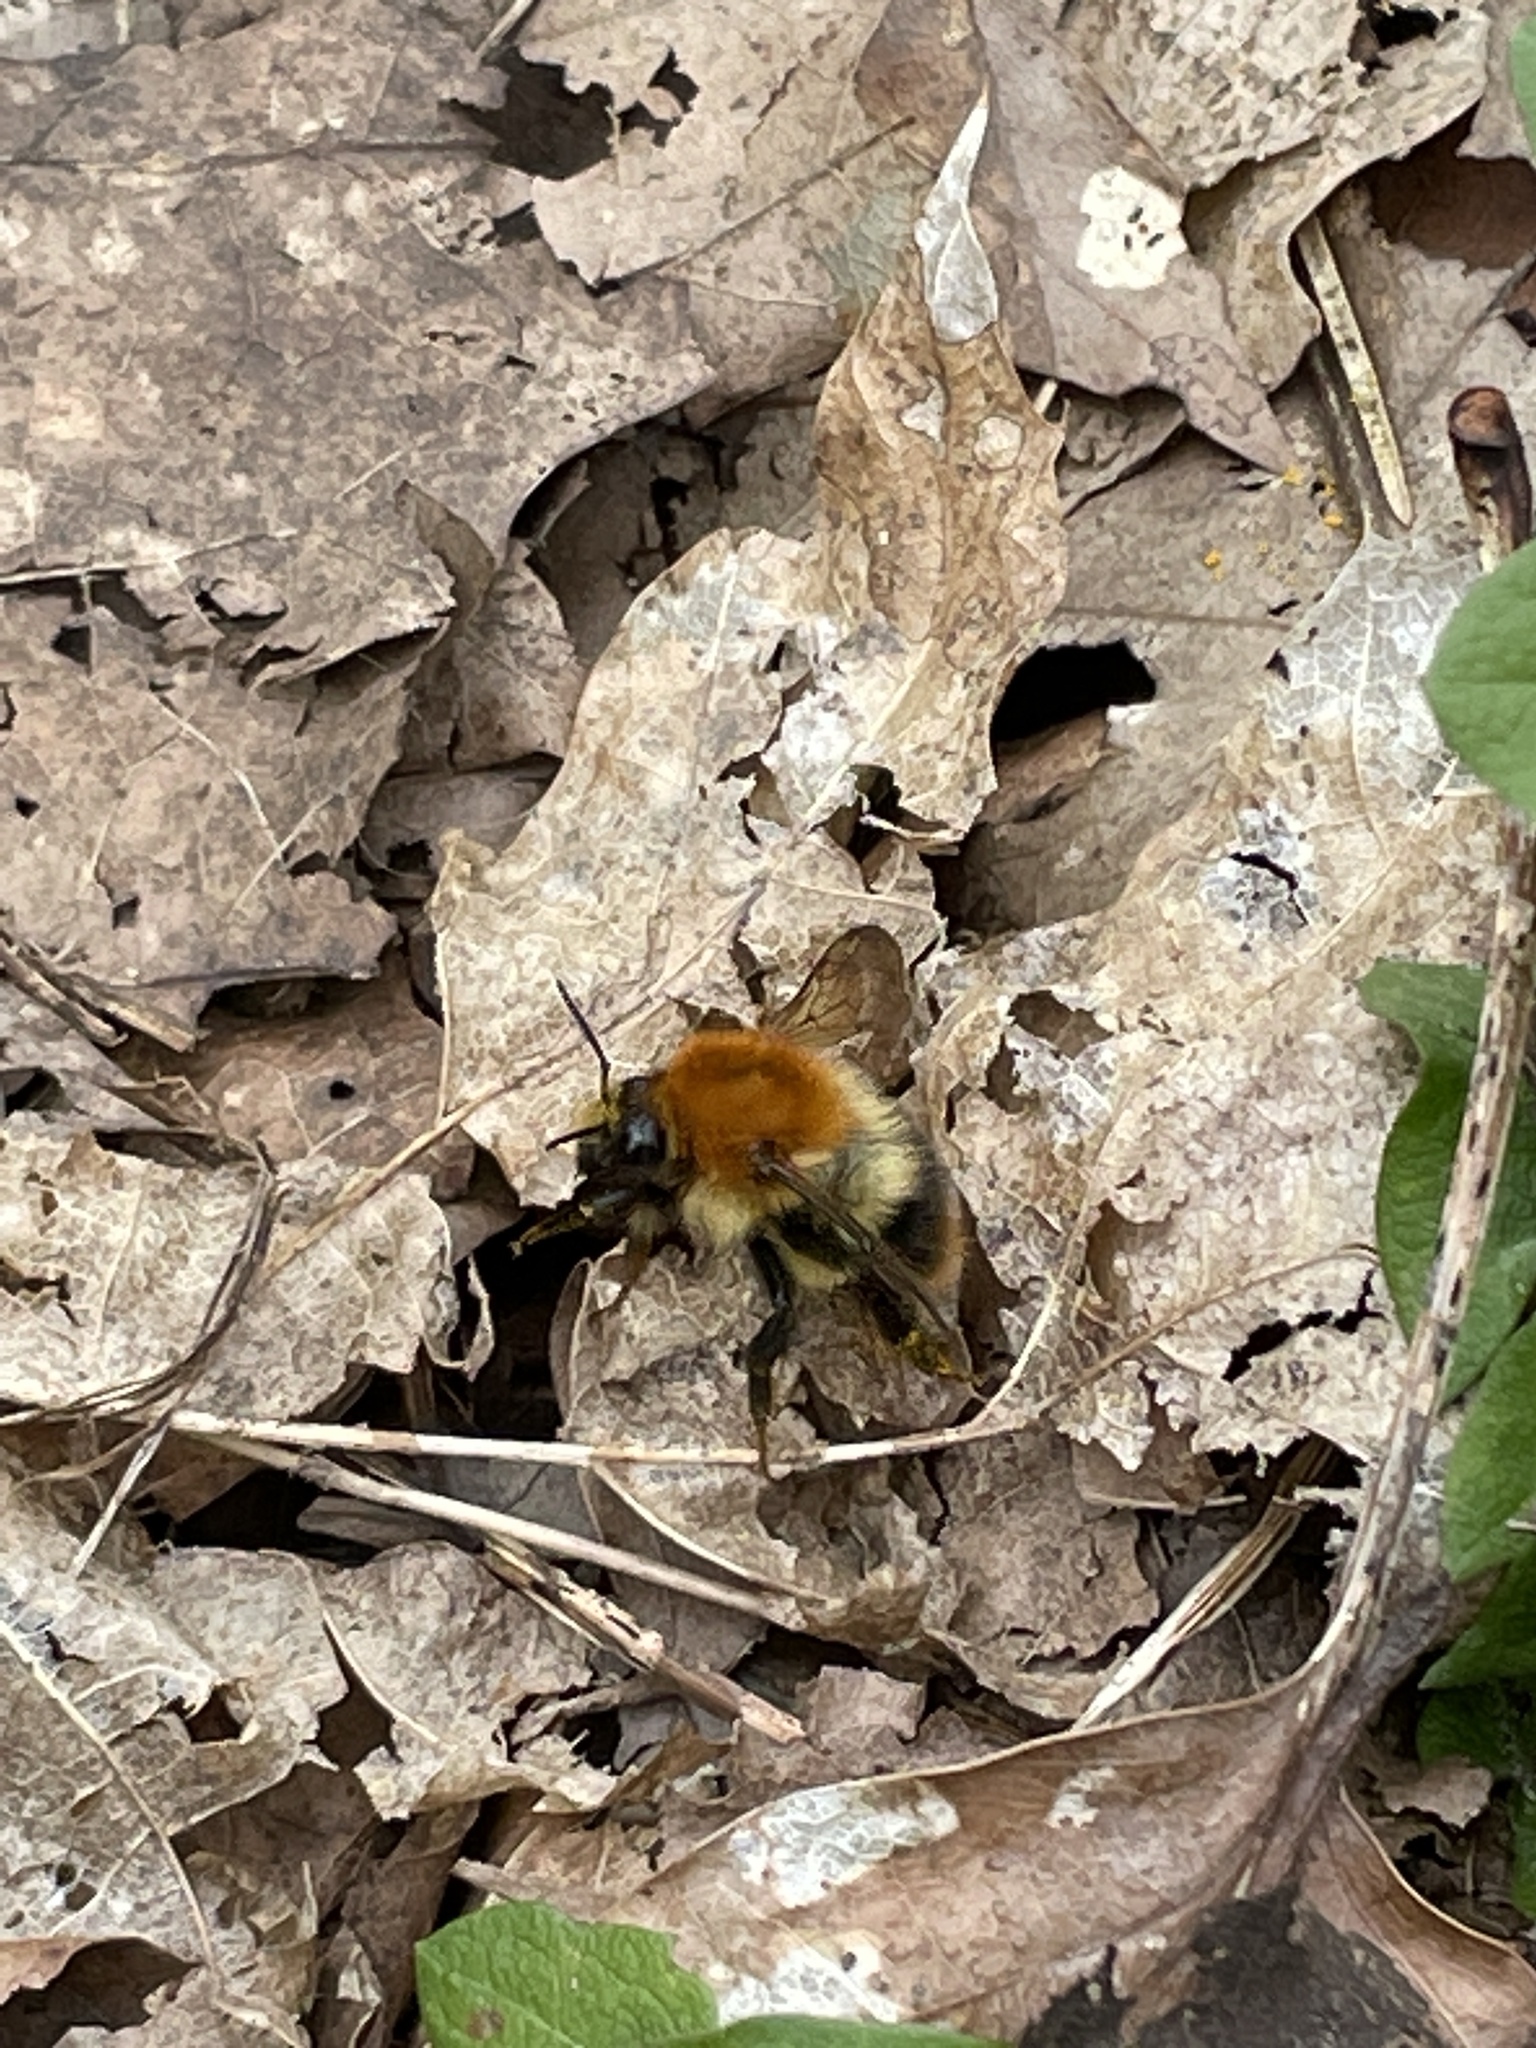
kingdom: Animalia
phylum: Arthropoda
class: Insecta
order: Hymenoptera
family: Apidae
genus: Bombus
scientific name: Bombus pascuorum
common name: Common carder bee
